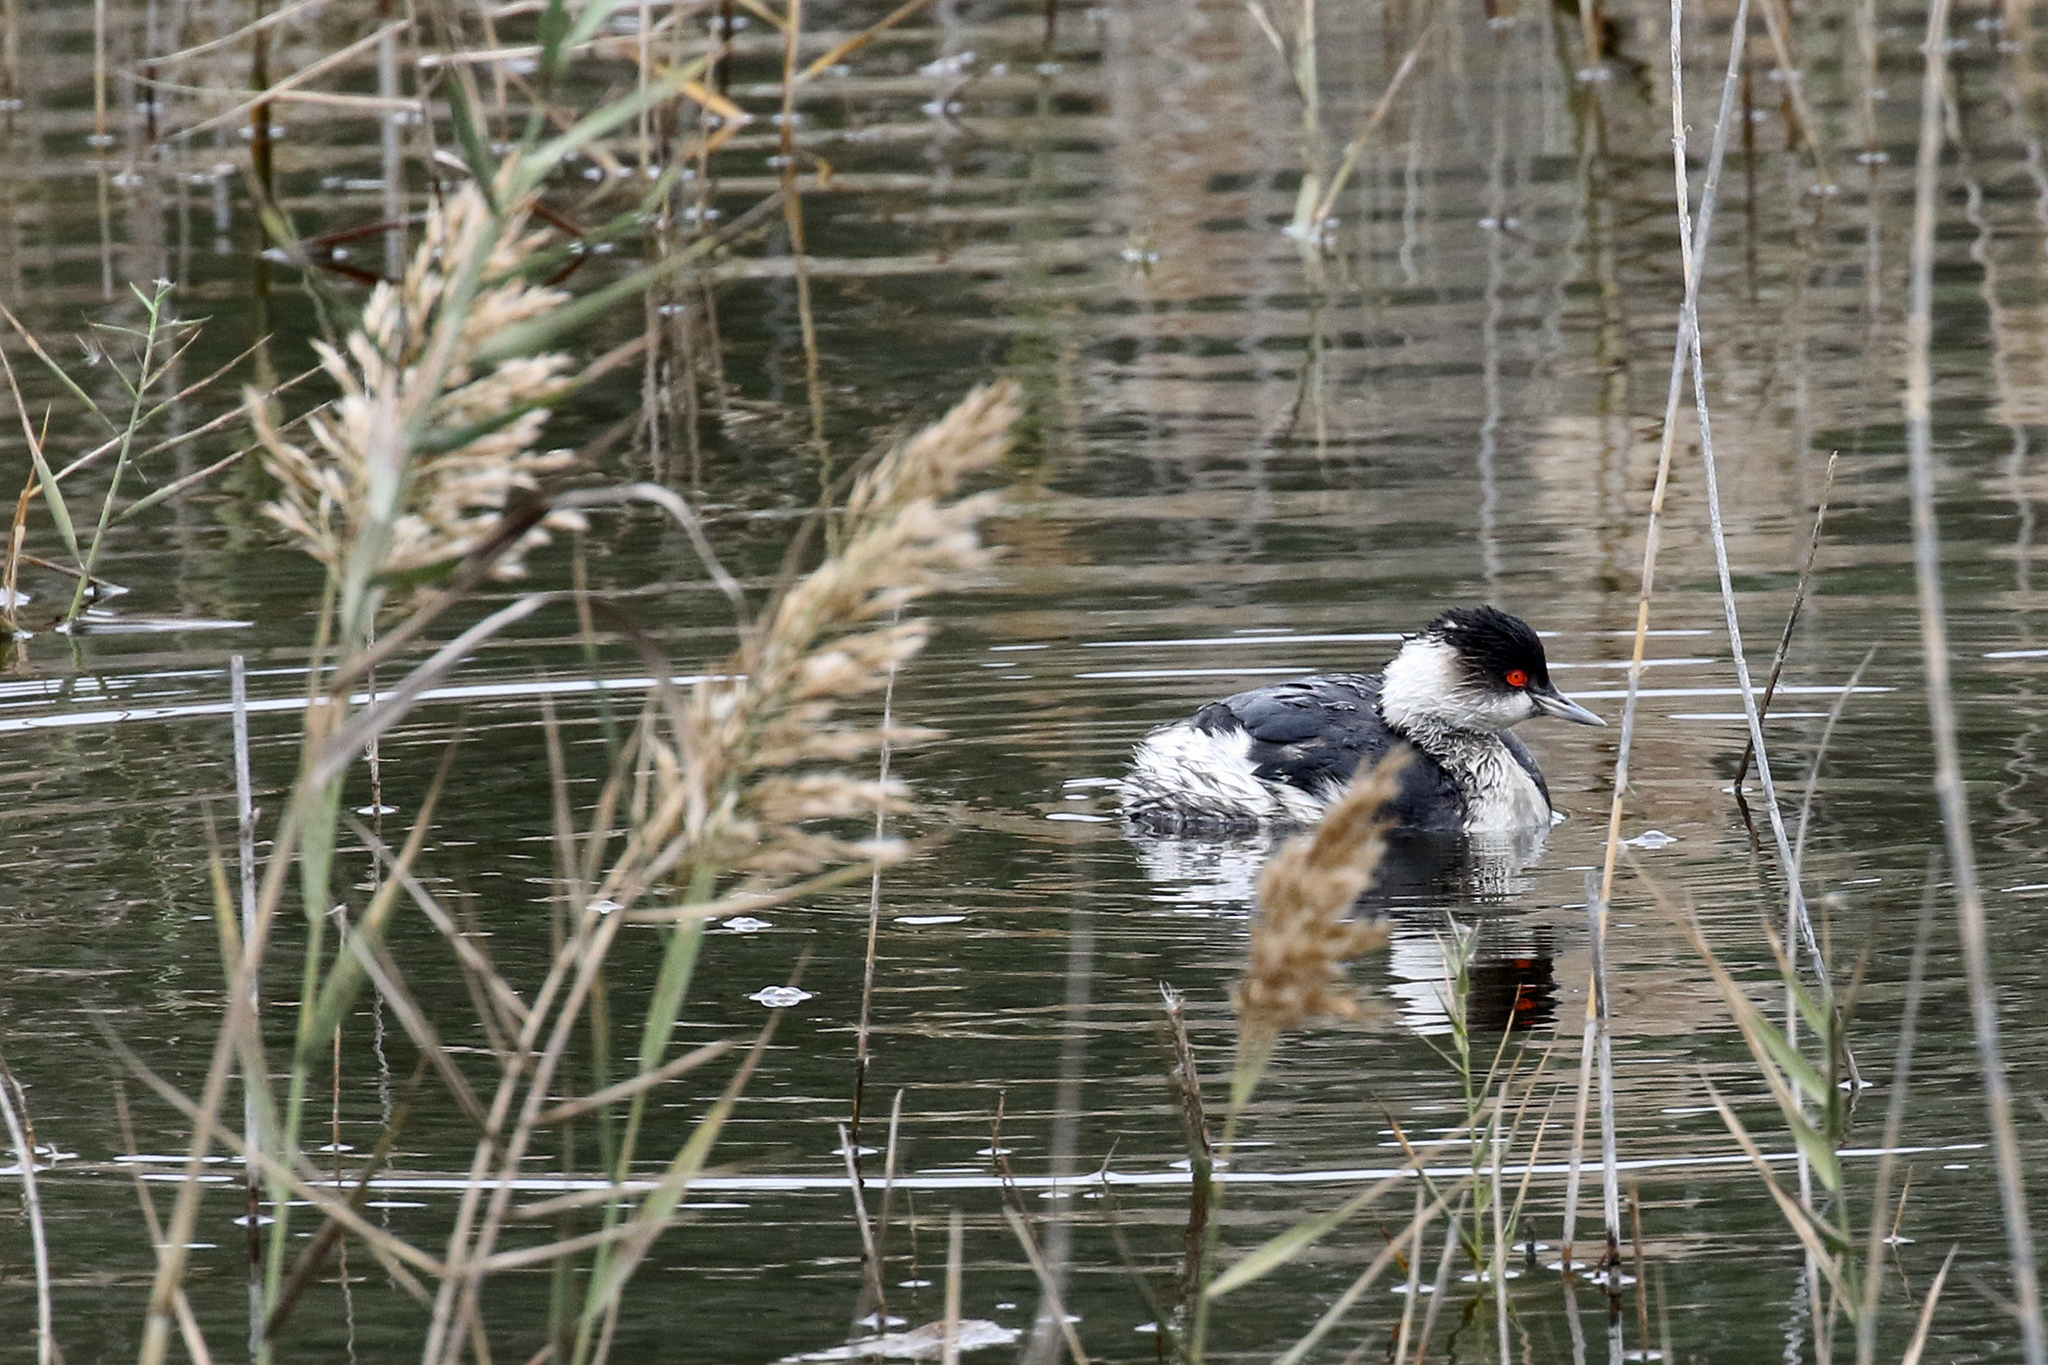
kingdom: Animalia
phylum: Chordata
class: Aves
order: Podicipediformes
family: Podicipedidae
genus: Podiceps
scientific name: Podiceps nigricollis
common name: Black-necked grebe
